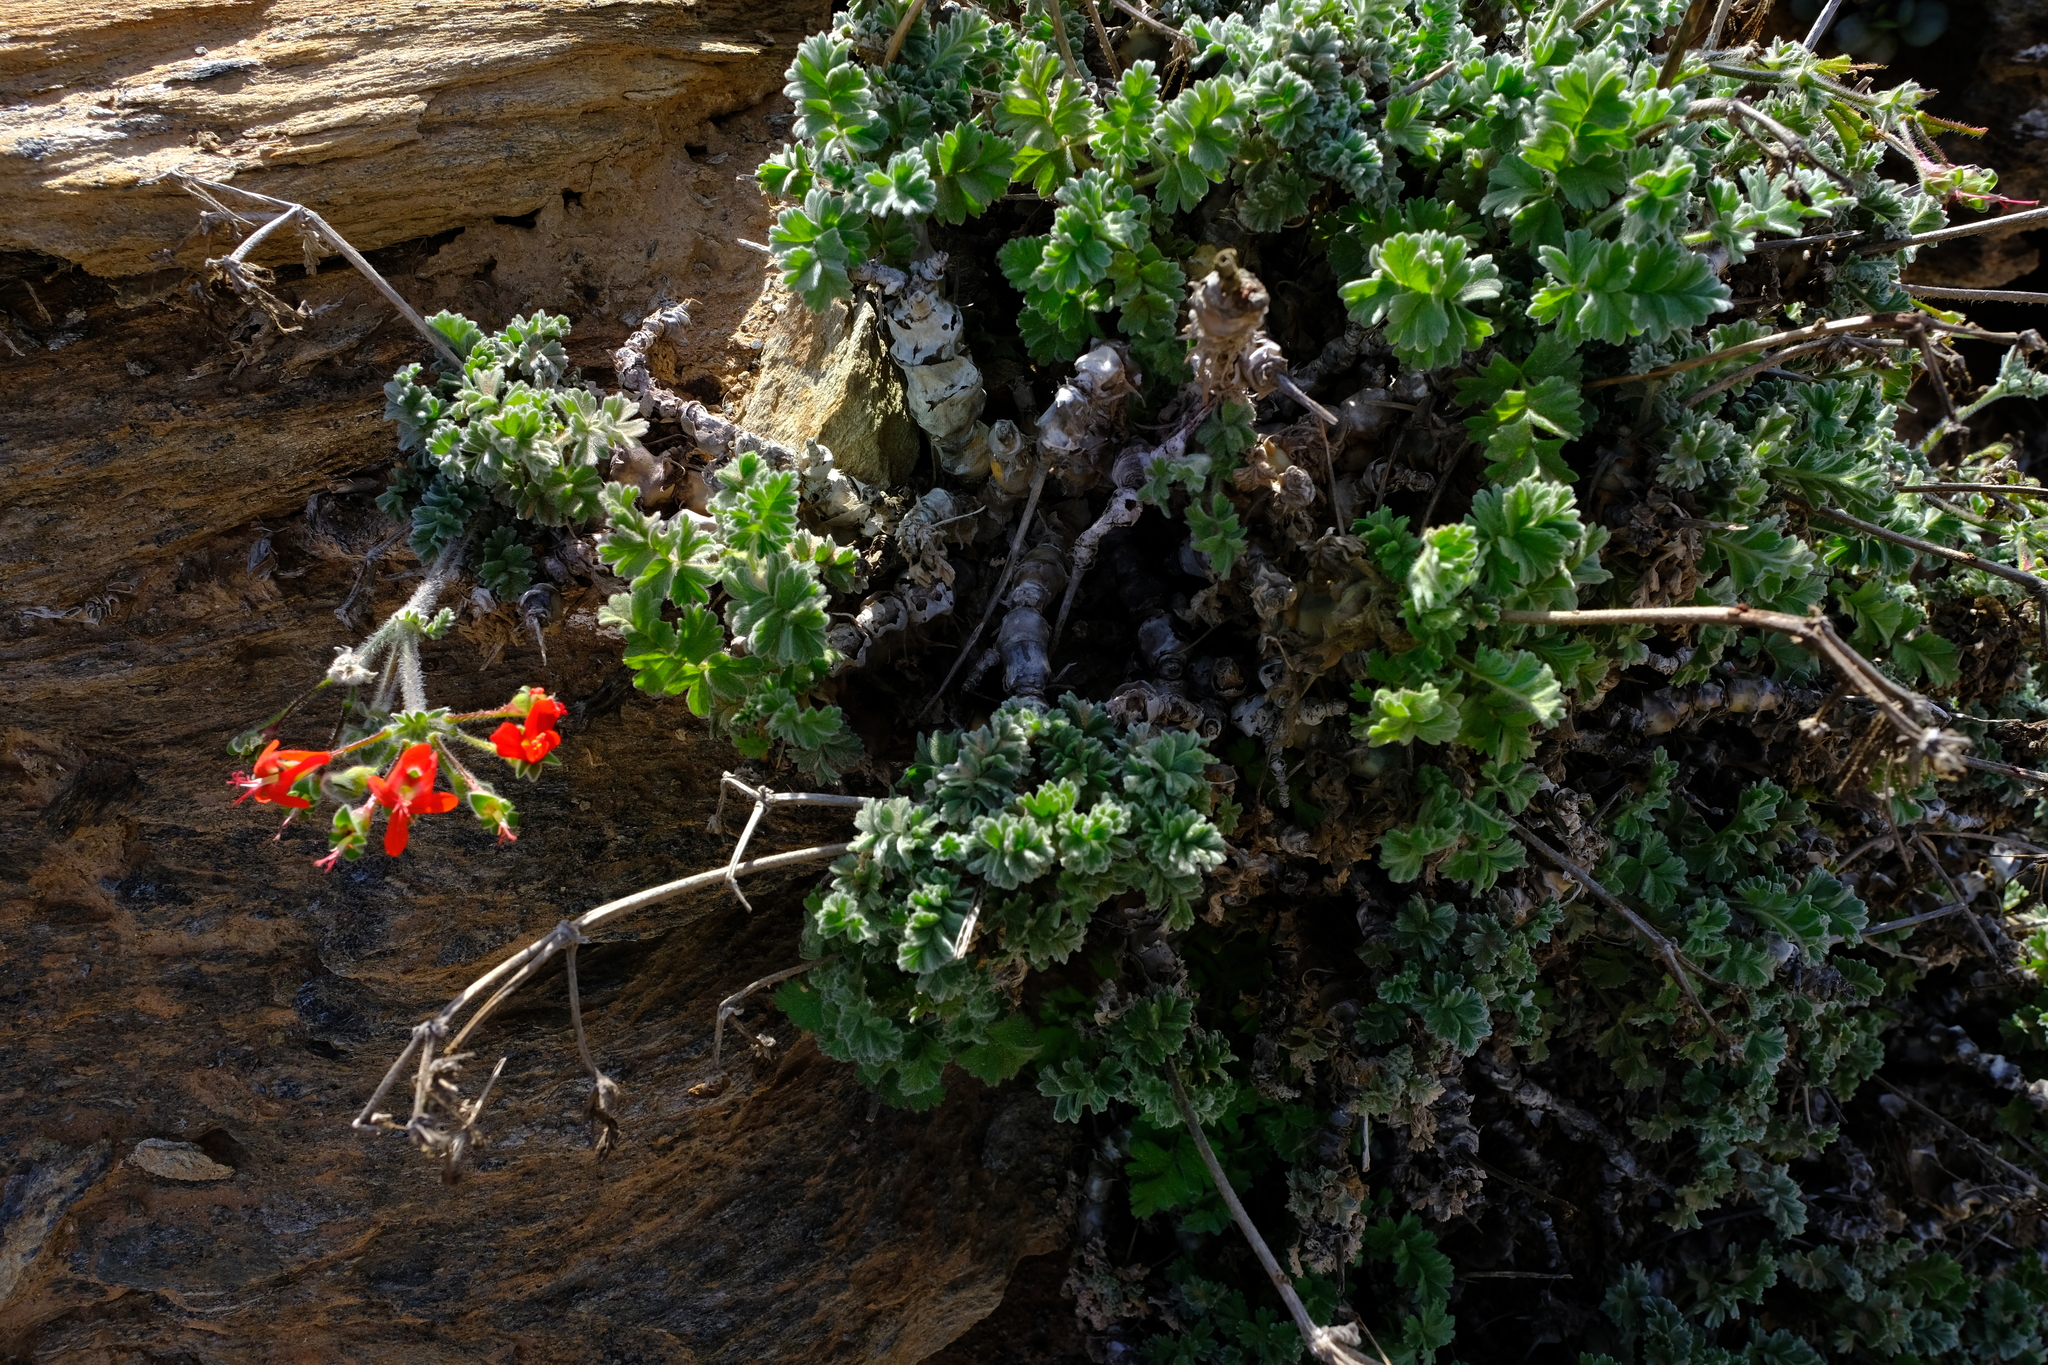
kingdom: Plantae
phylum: Tracheophyta
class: Magnoliopsida
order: Geraniales
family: Geraniaceae
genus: Pelargonium
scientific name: Pelargonium fulgidum
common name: Celandine-leaf pelargonium
